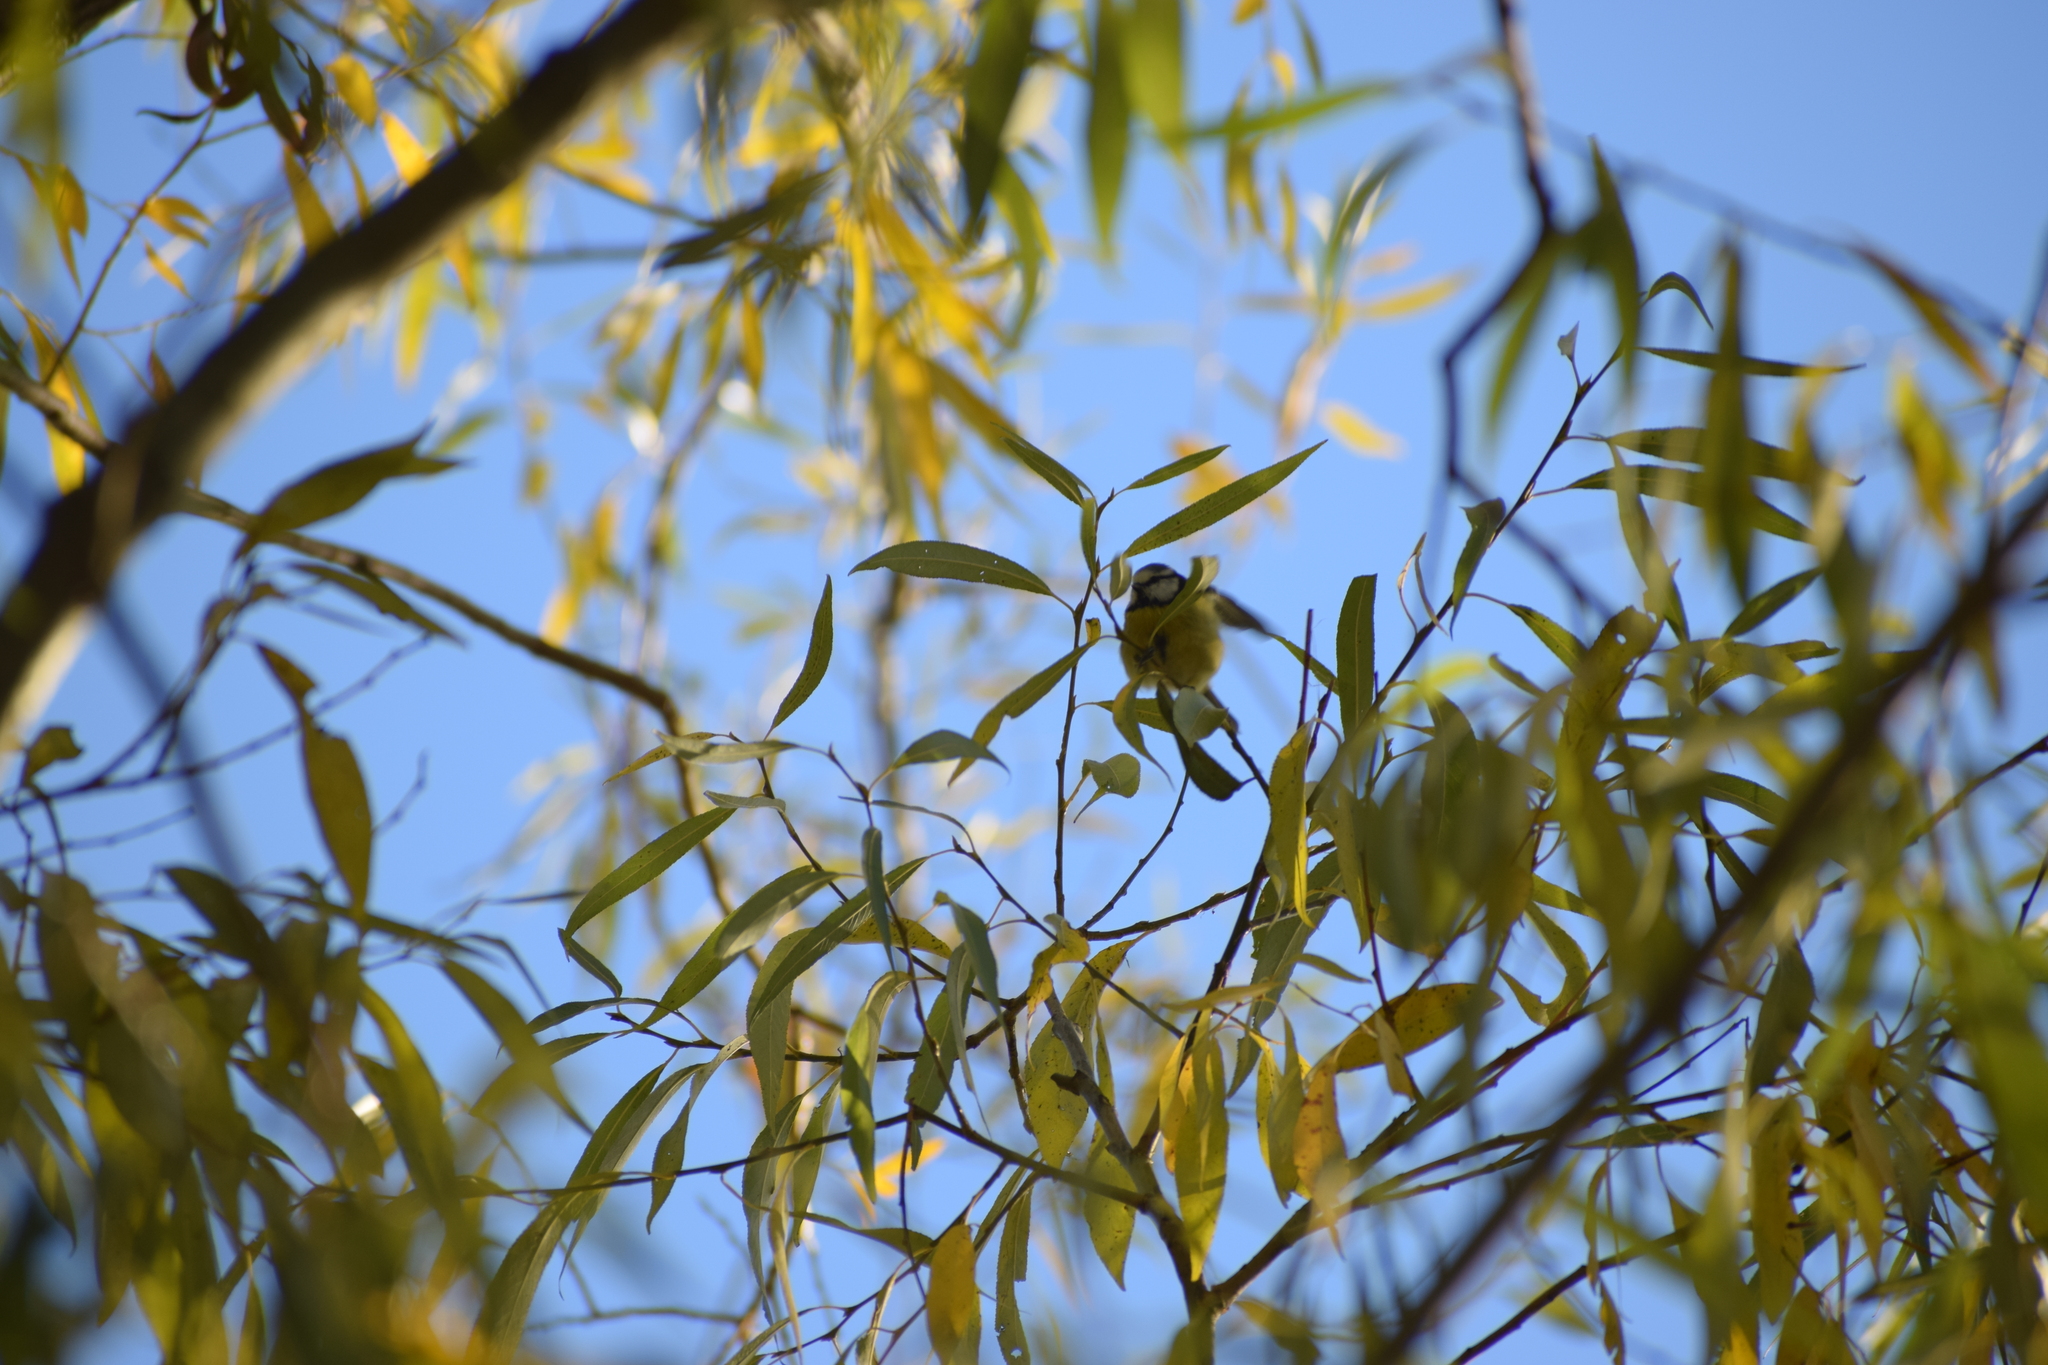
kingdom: Animalia
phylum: Chordata
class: Aves
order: Passeriformes
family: Paridae
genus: Cyanistes
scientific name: Cyanistes caeruleus
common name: Eurasian blue tit
